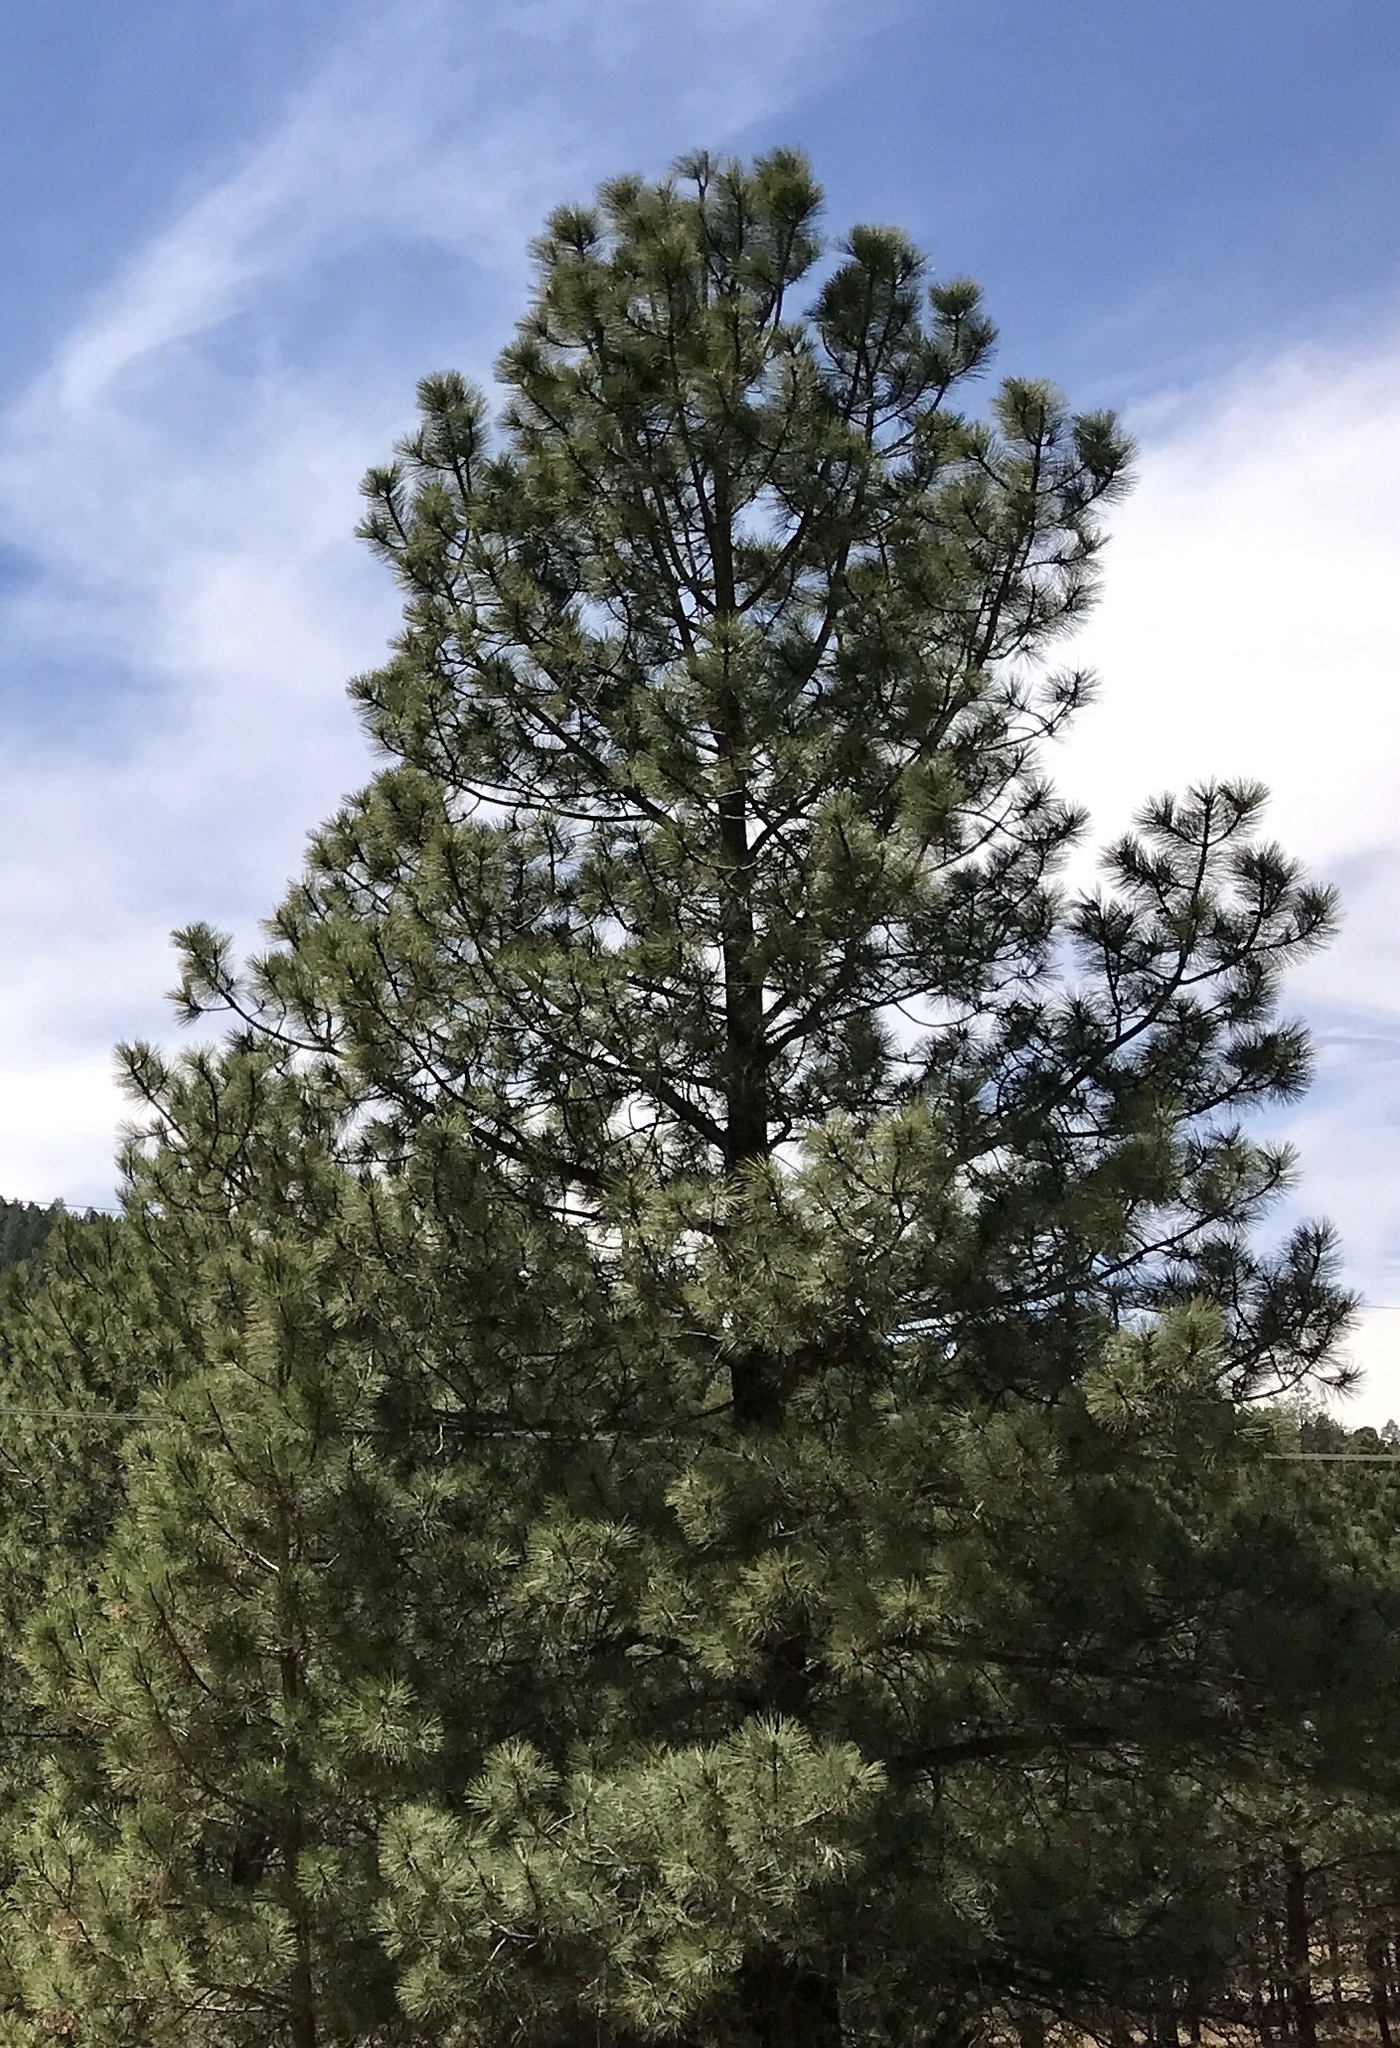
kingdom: Plantae
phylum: Tracheophyta
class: Pinopsida
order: Pinales
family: Pinaceae
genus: Pinus
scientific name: Pinus ponderosa
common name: Western yellow-pine
